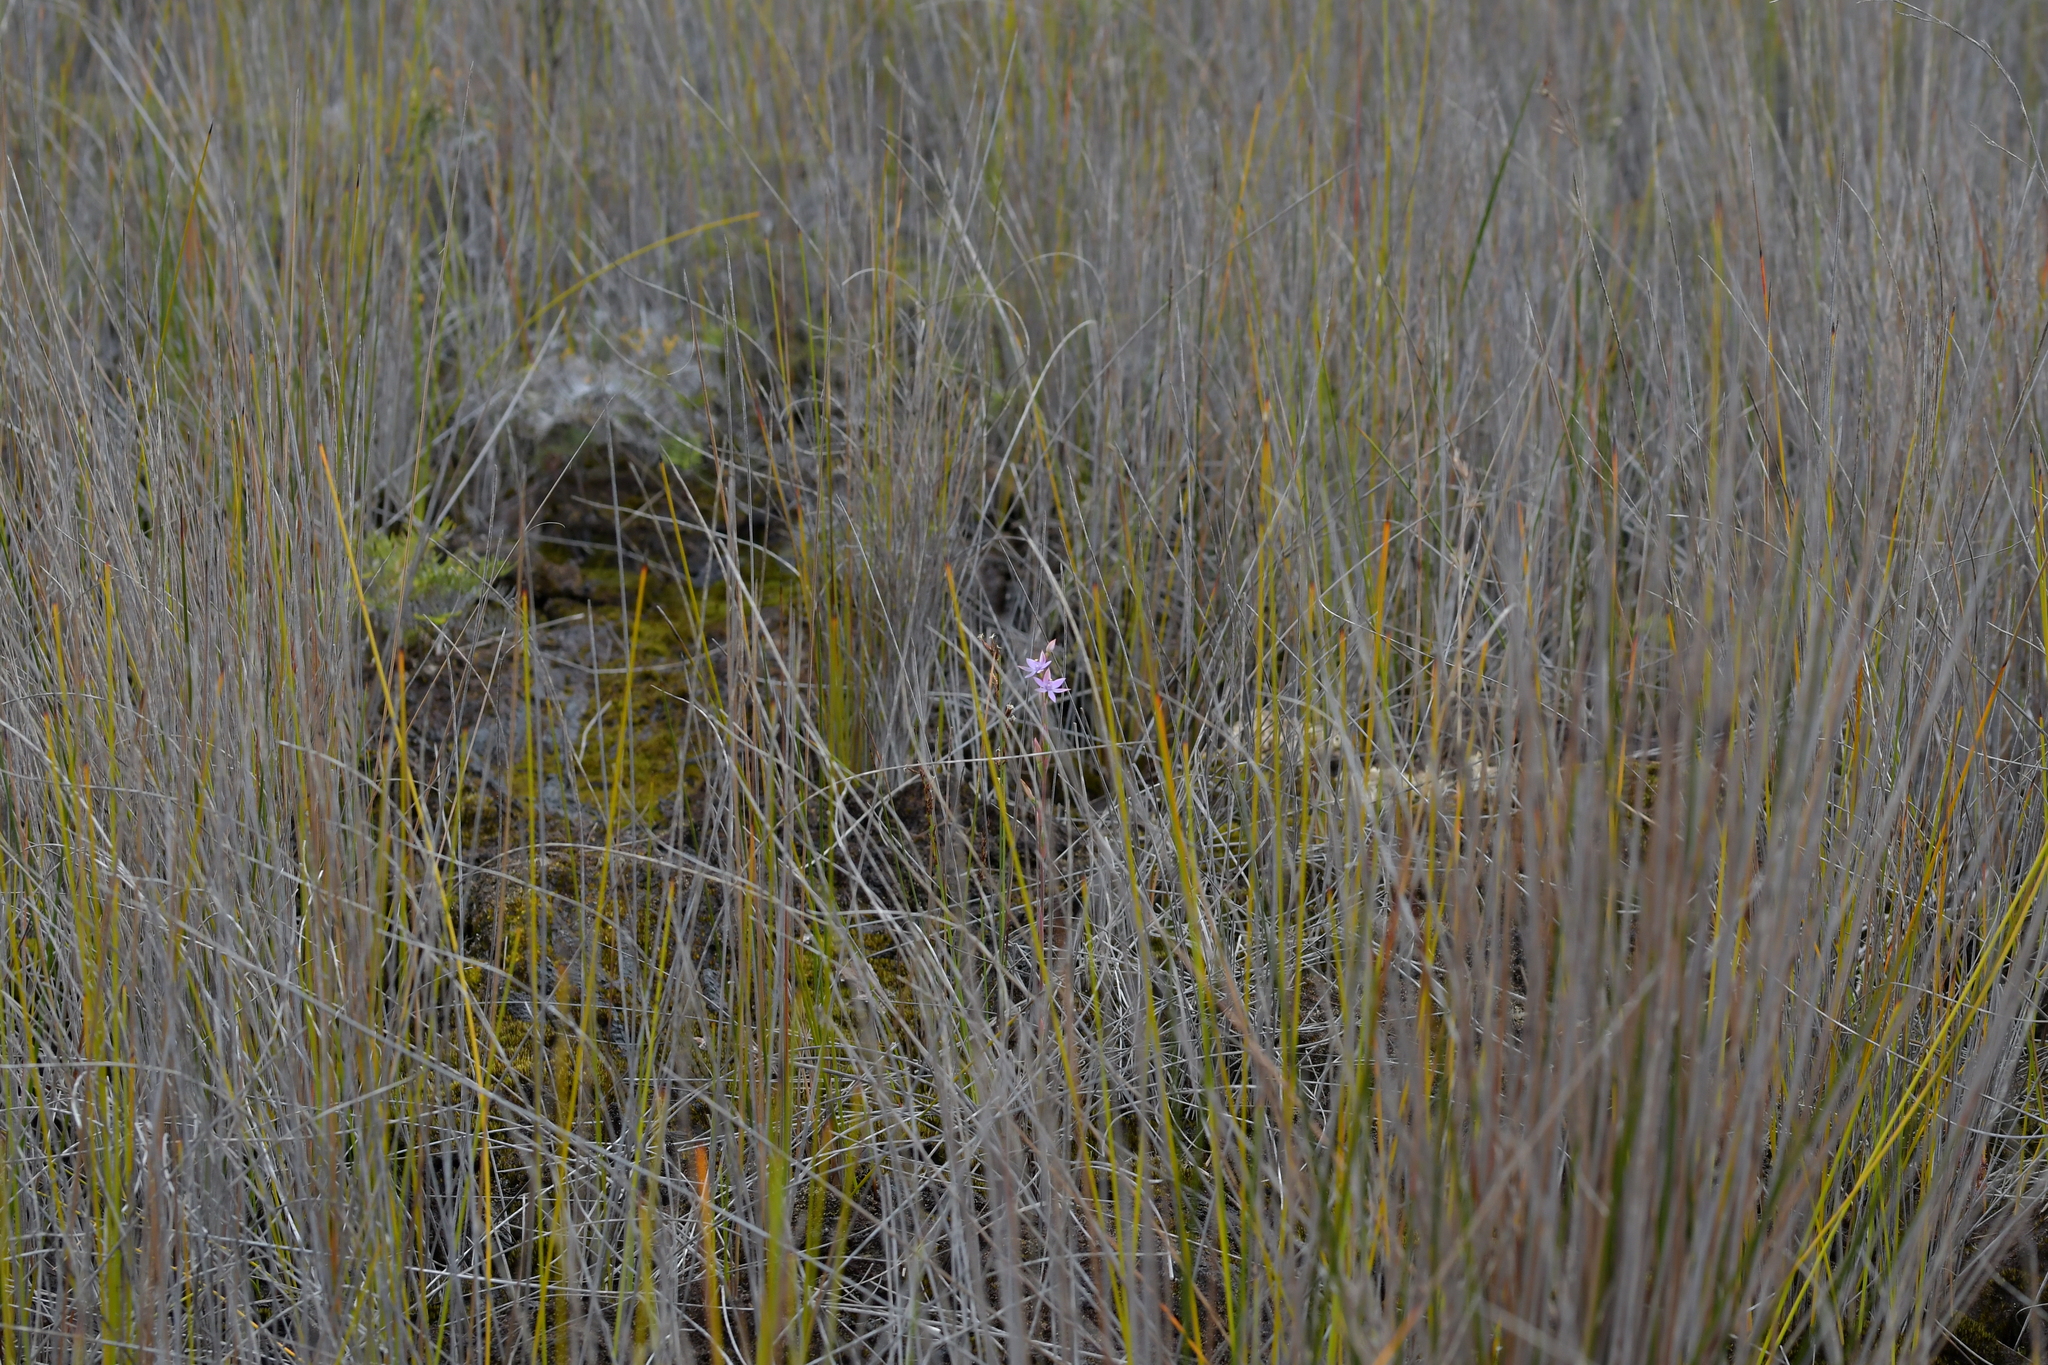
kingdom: Plantae
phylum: Tracheophyta
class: Liliopsida
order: Asparagales
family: Orchidaceae
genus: Thelymitra
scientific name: Thelymitra malvina
